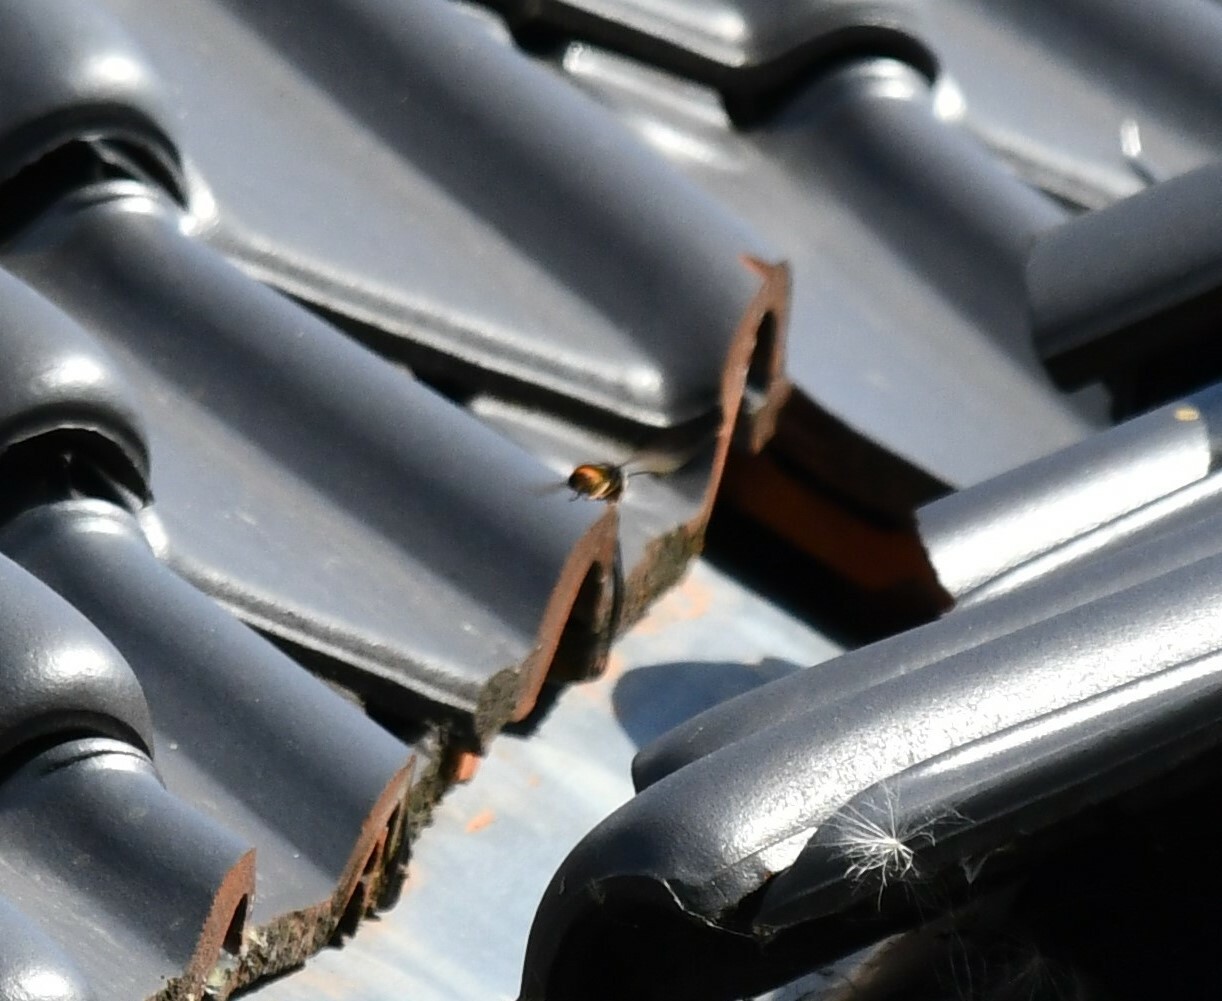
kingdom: Animalia
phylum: Arthropoda
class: Insecta
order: Hymenoptera
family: Vespidae
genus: Vespa
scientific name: Vespa velutina
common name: Asian hornet
